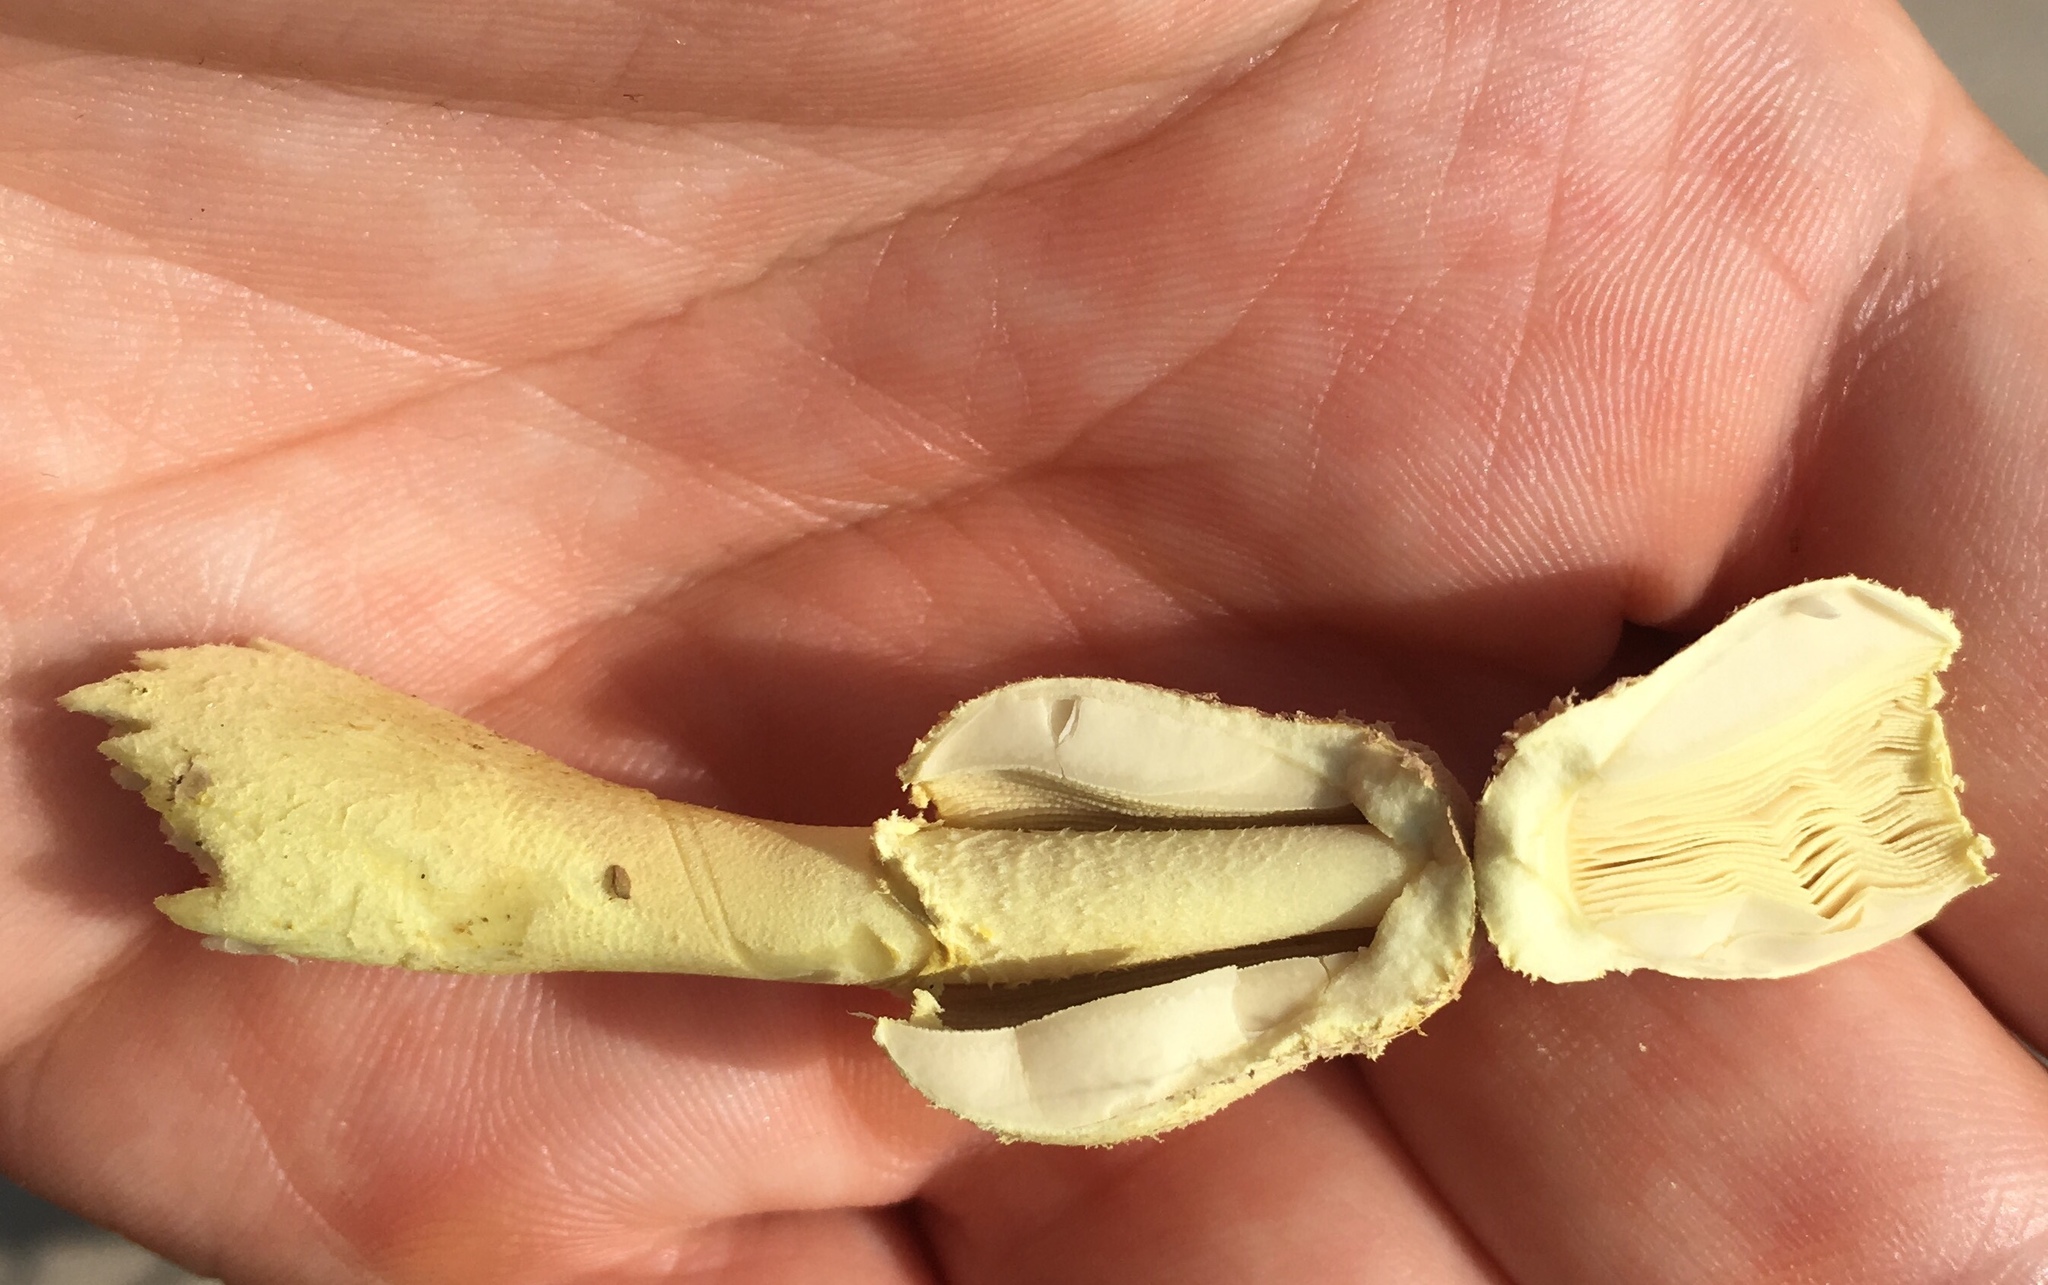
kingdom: Fungi
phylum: Basidiomycota
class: Agaricomycetes
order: Agaricales
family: Agaricaceae
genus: Leucocoprinus
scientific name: Leucocoprinus birnbaumii
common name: Plantpot dapperling
